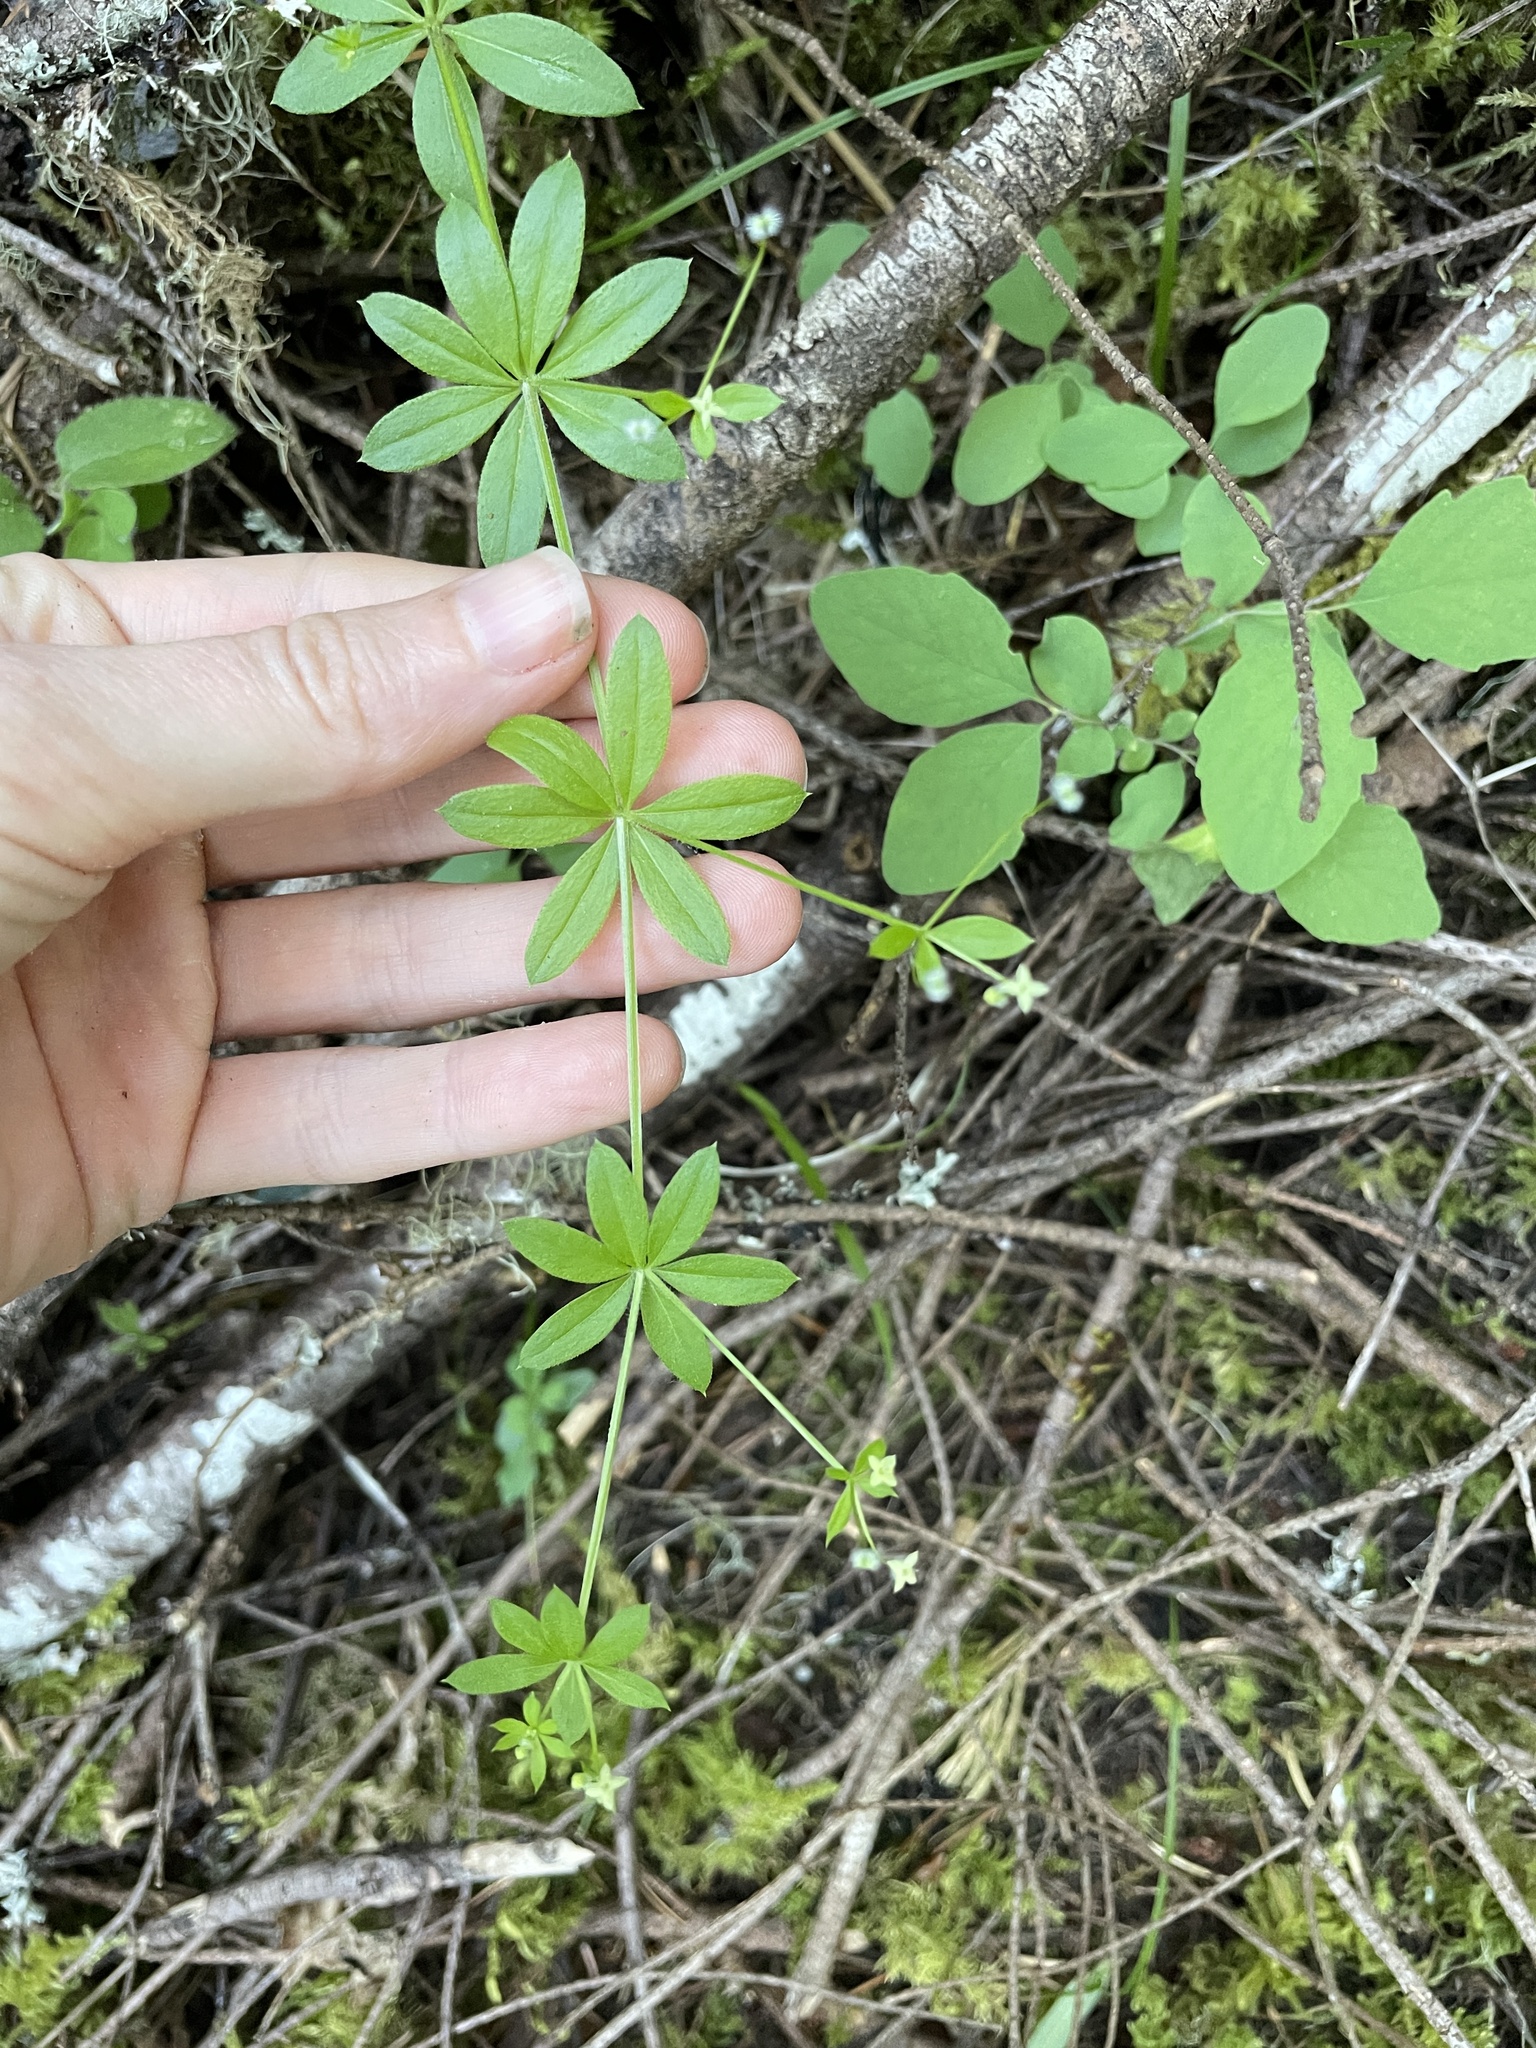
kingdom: Plantae
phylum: Tracheophyta
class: Magnoliopsida
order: Gentianales
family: Rubiaceae
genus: Galium
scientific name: Galium triflorum
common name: Fragrant bedstraw
